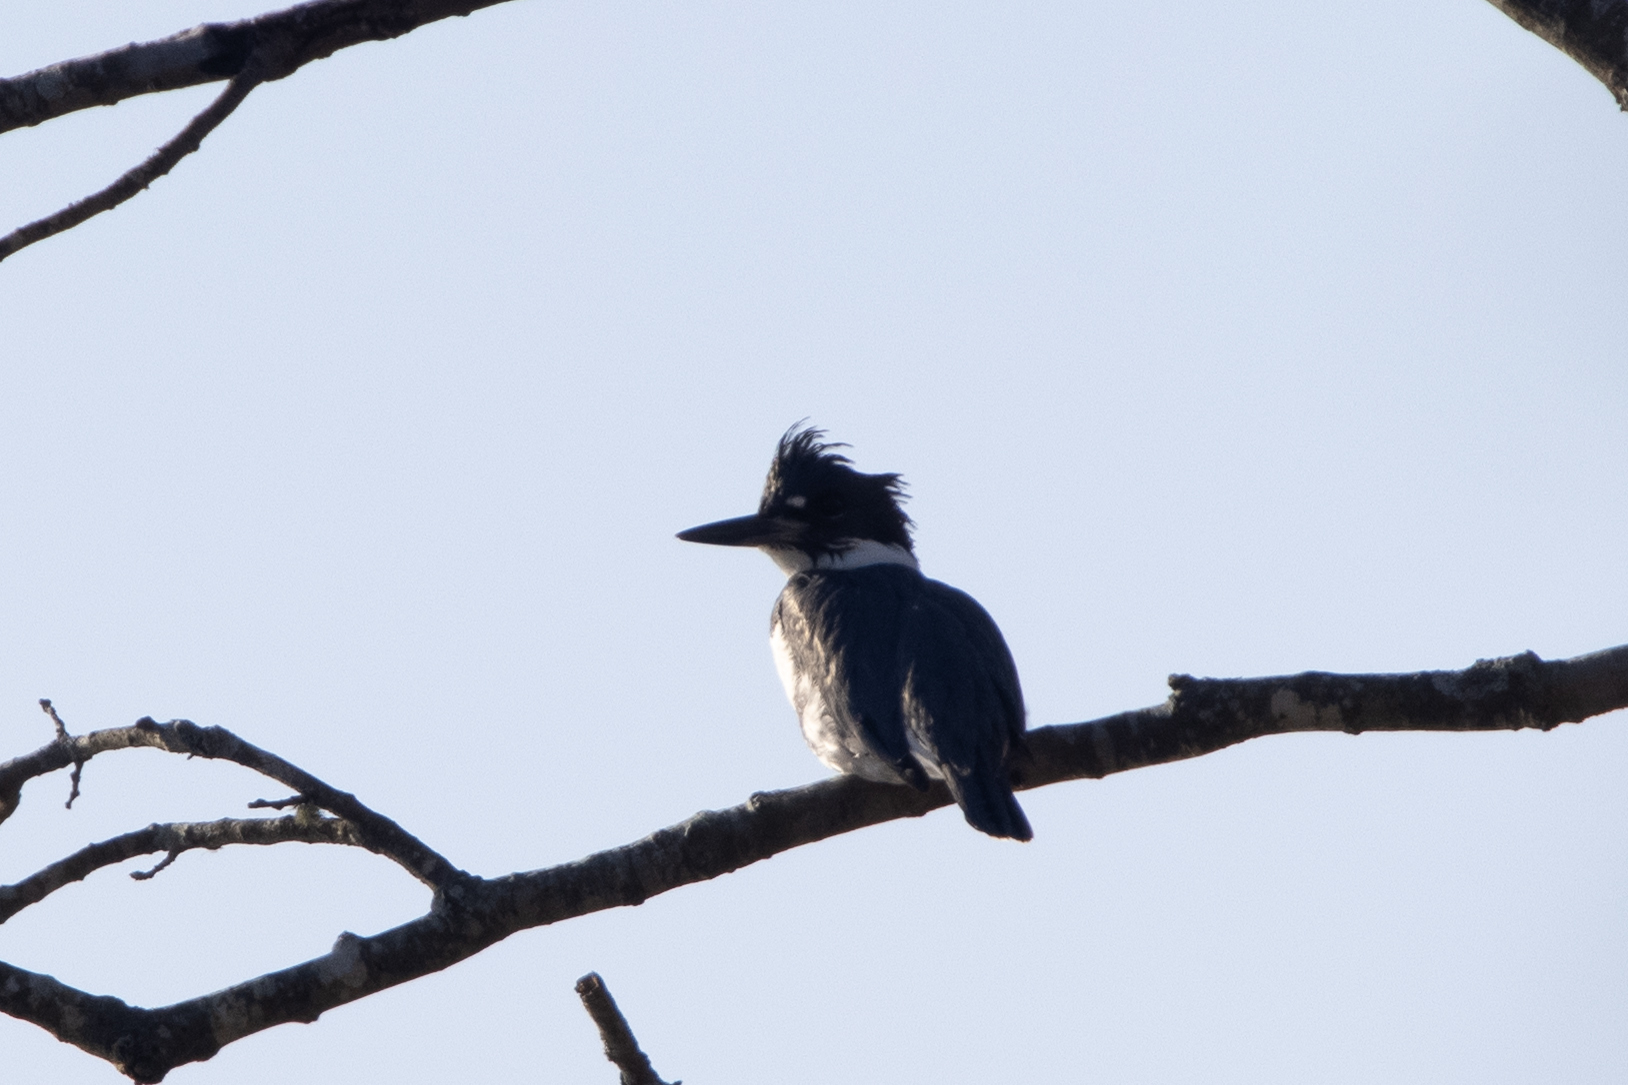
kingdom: Animalia
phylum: Chordata
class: Aves
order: Coraciiformes
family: Alcedinidae
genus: Megaceryle
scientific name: Megaceryle alcyon
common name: Belted kingfisher
